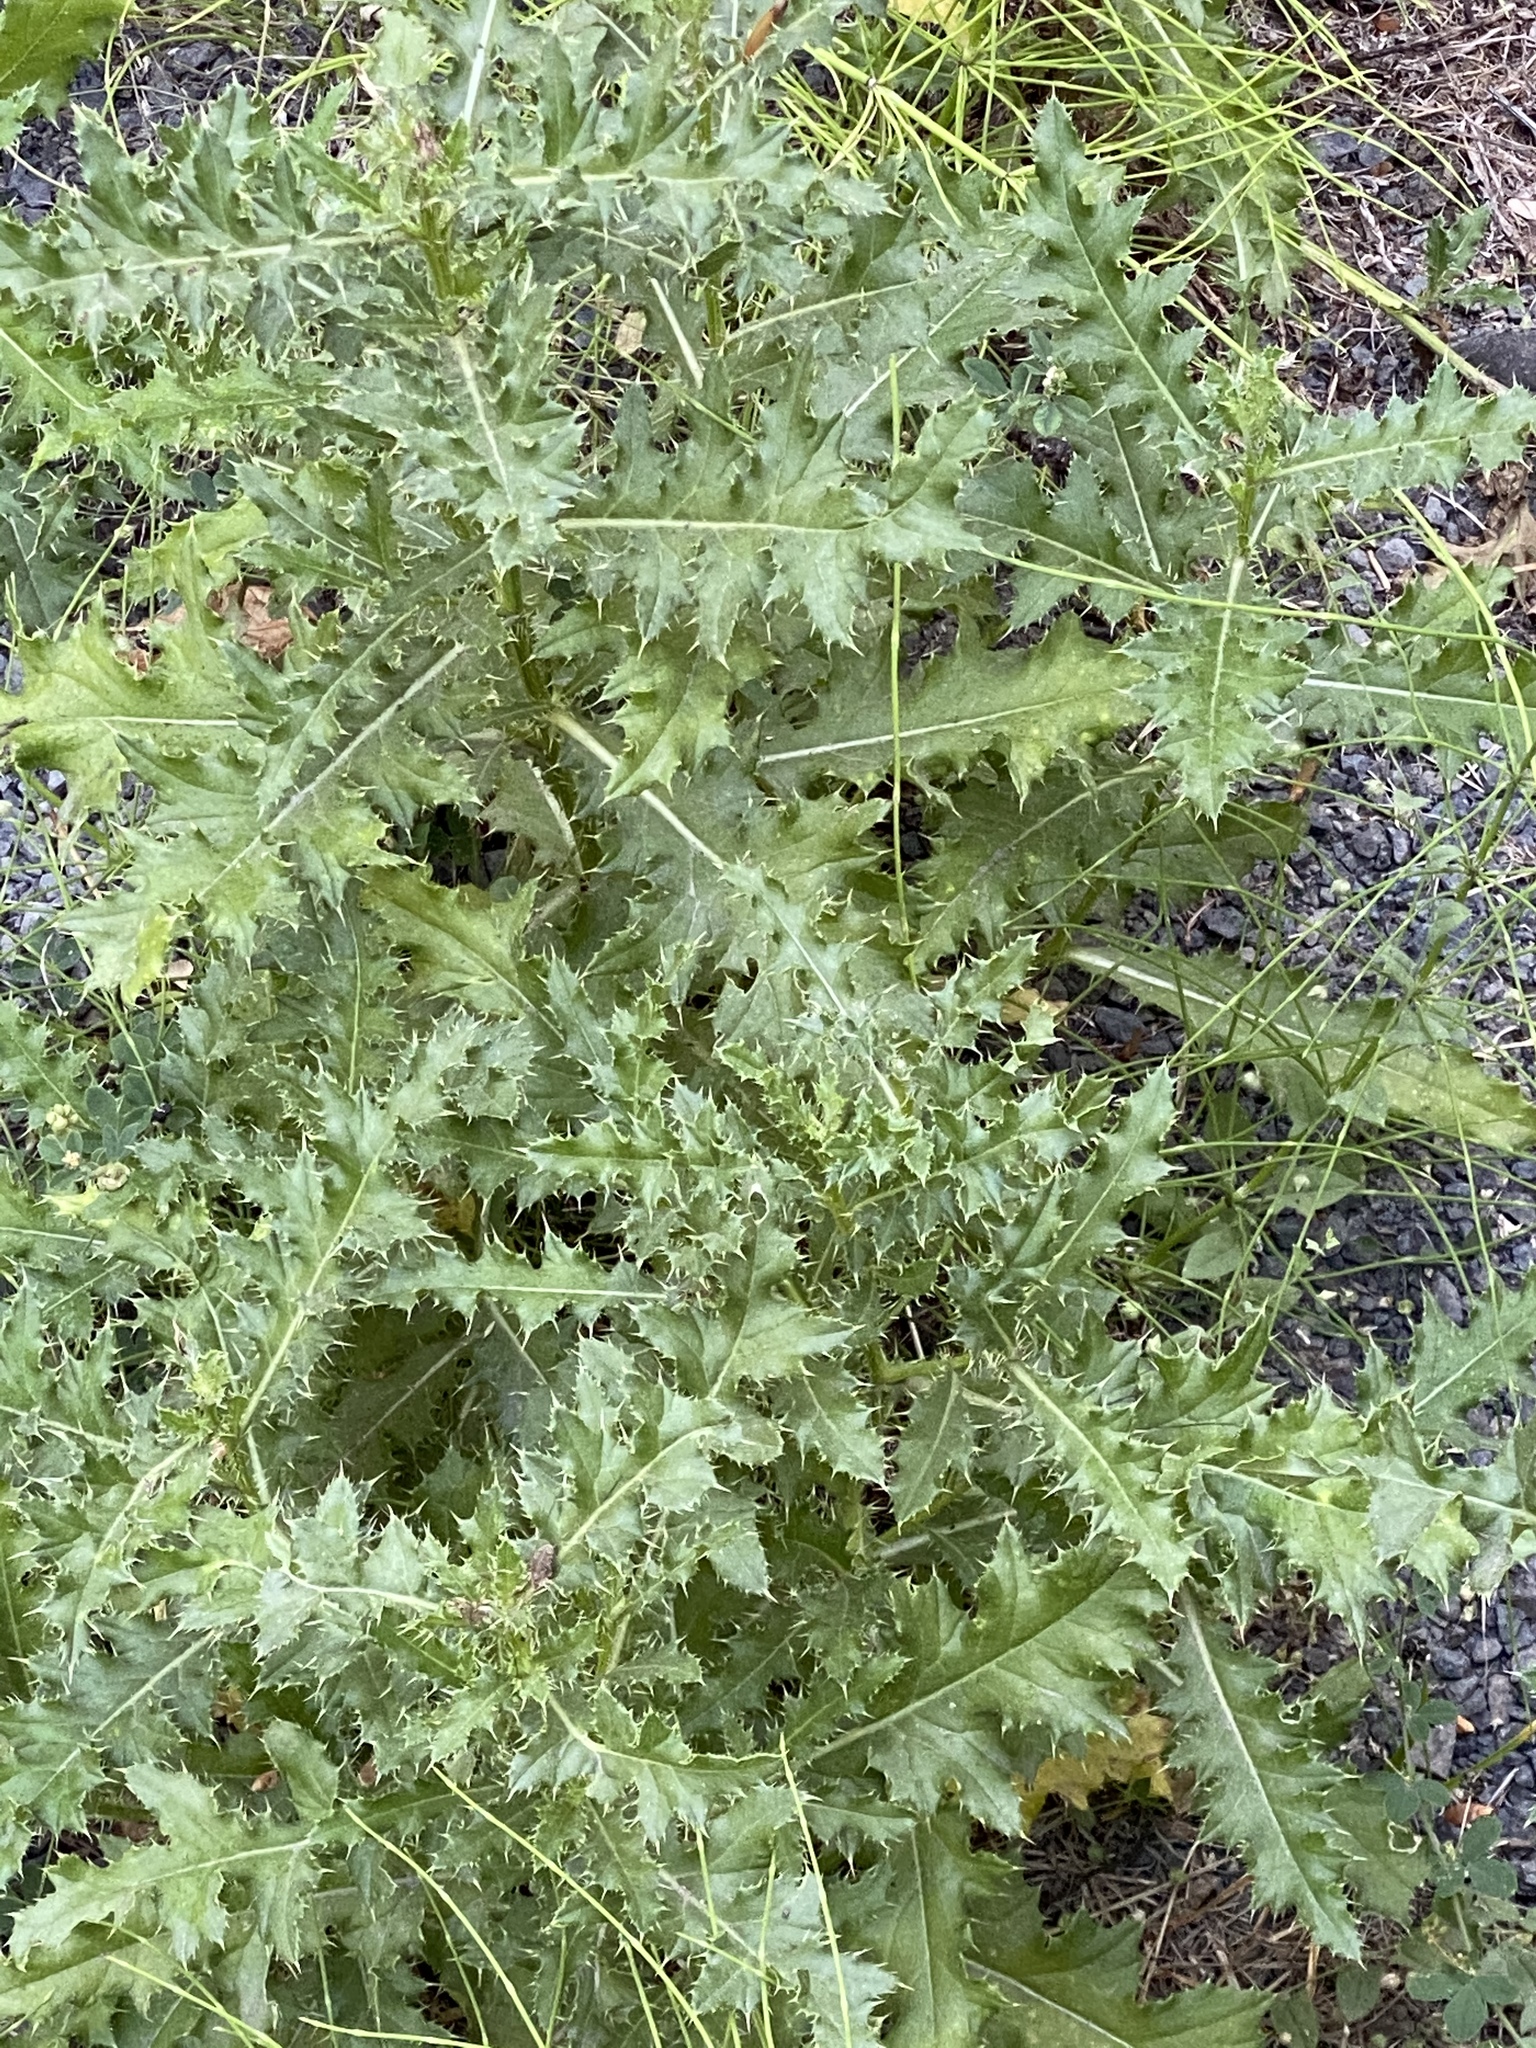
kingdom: Plantae
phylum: Tracheophyta
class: Magnoliopsida
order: Asterales
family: Asteraceae
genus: Cirsium
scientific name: Cirsium arvense
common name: Creeping thistle
